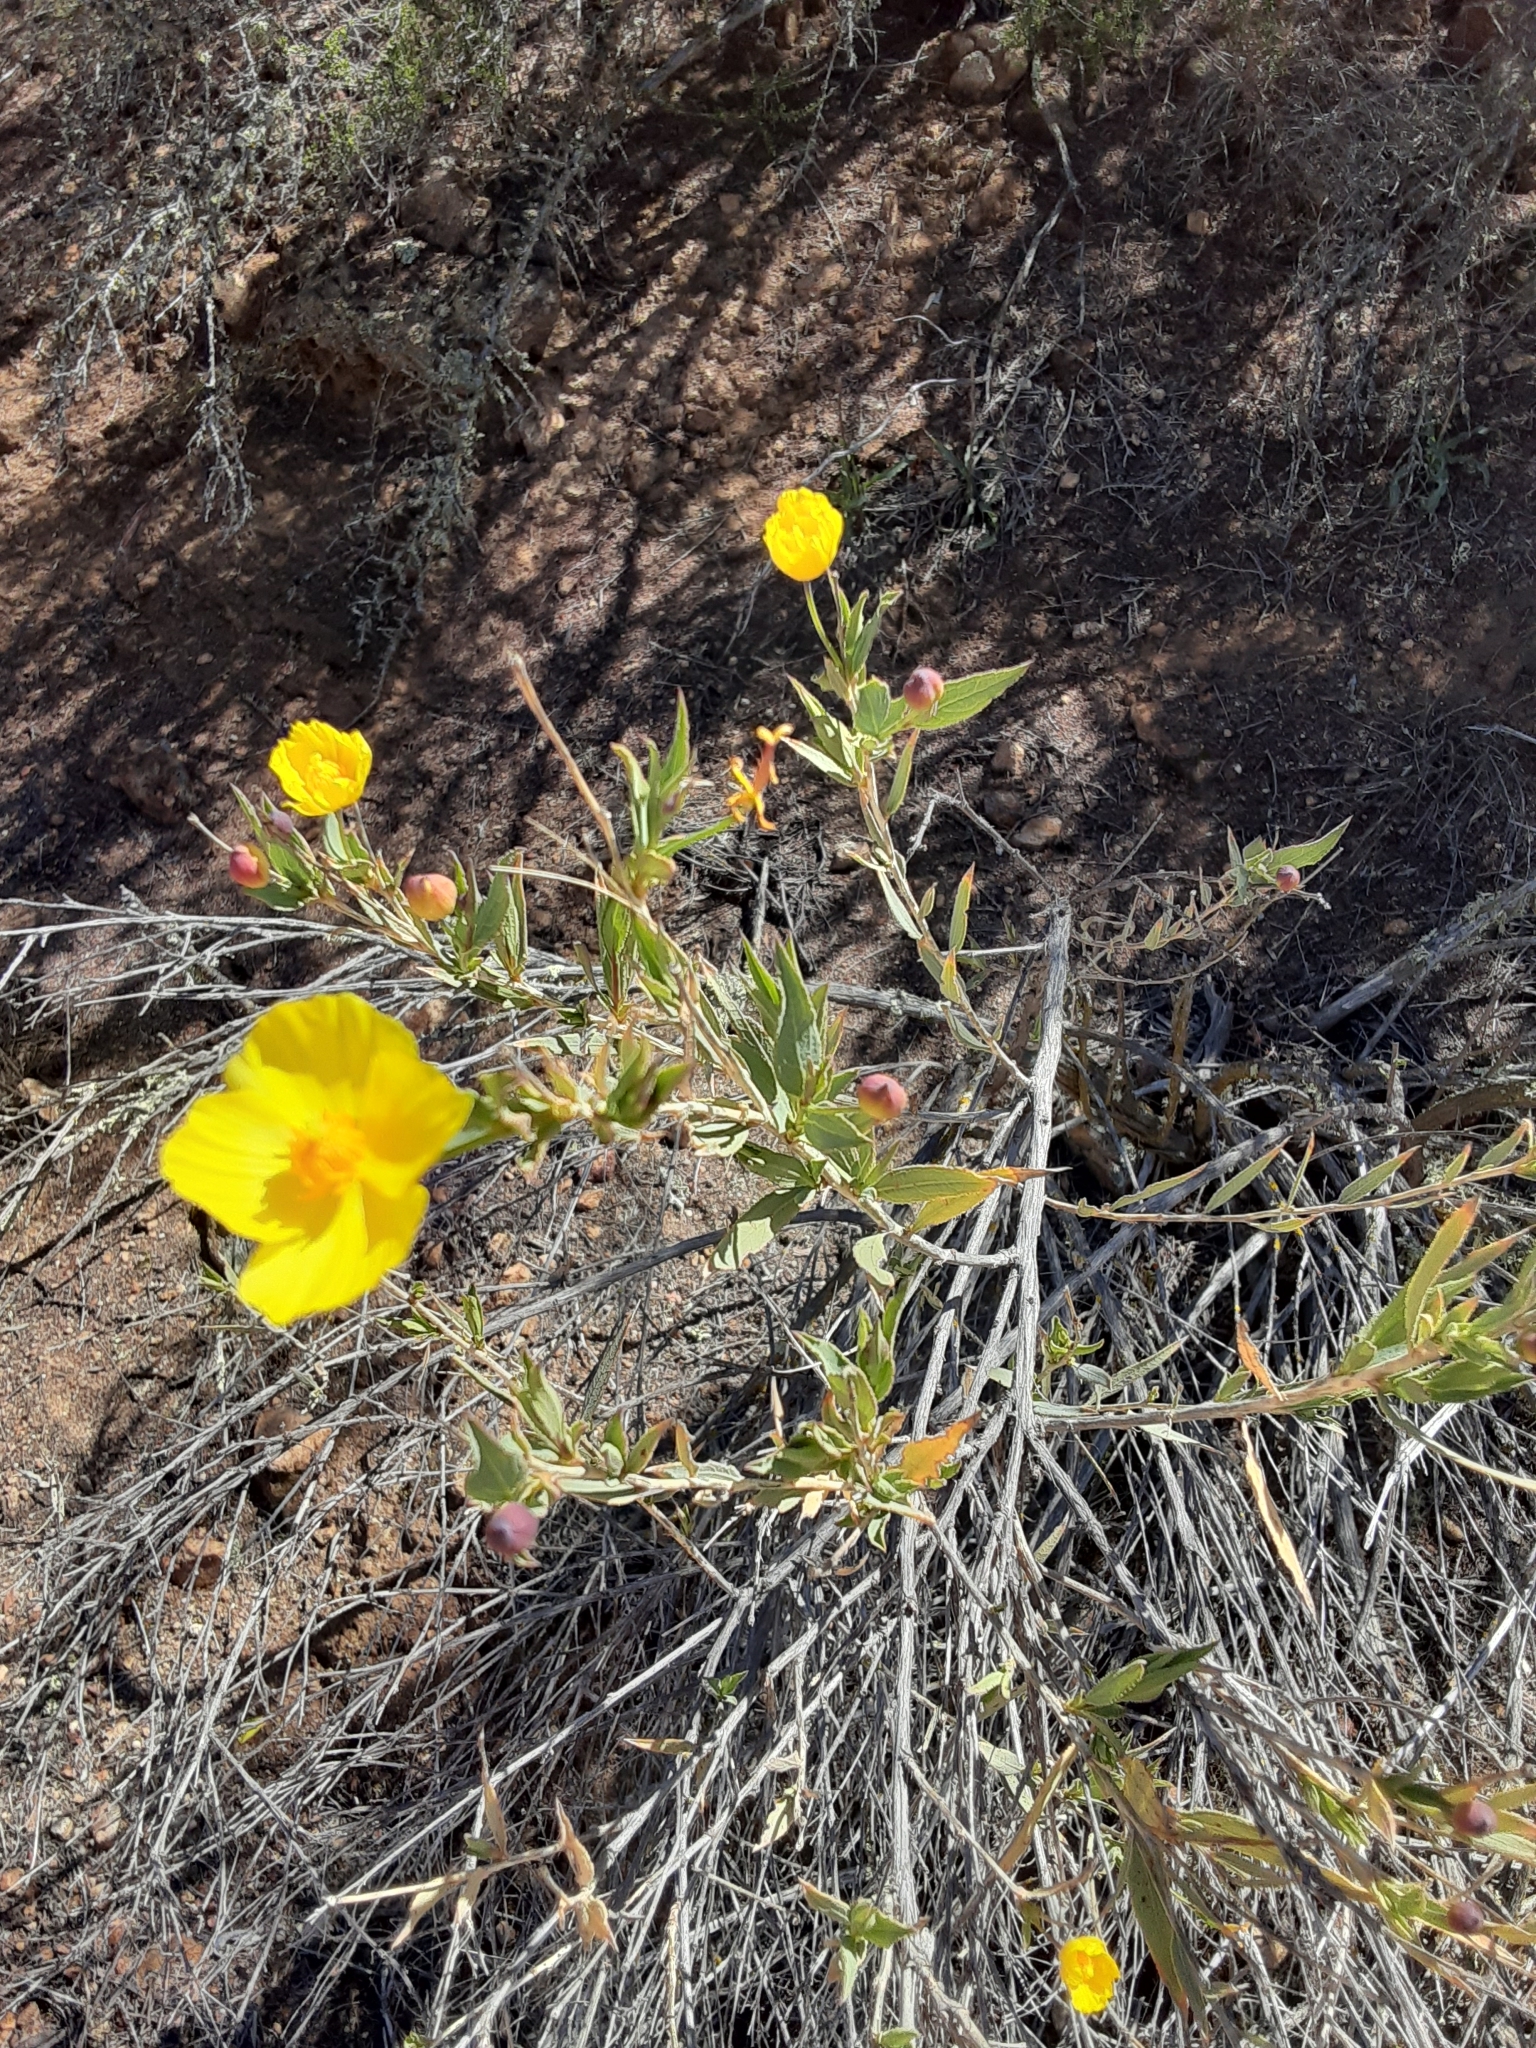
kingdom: Plantae
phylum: Tracheophyta
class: Magnoliopsida
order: Ranunculales
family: Papaveraceae
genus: Dendromecon
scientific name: Dendromecon rigida
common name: Tree poppy
